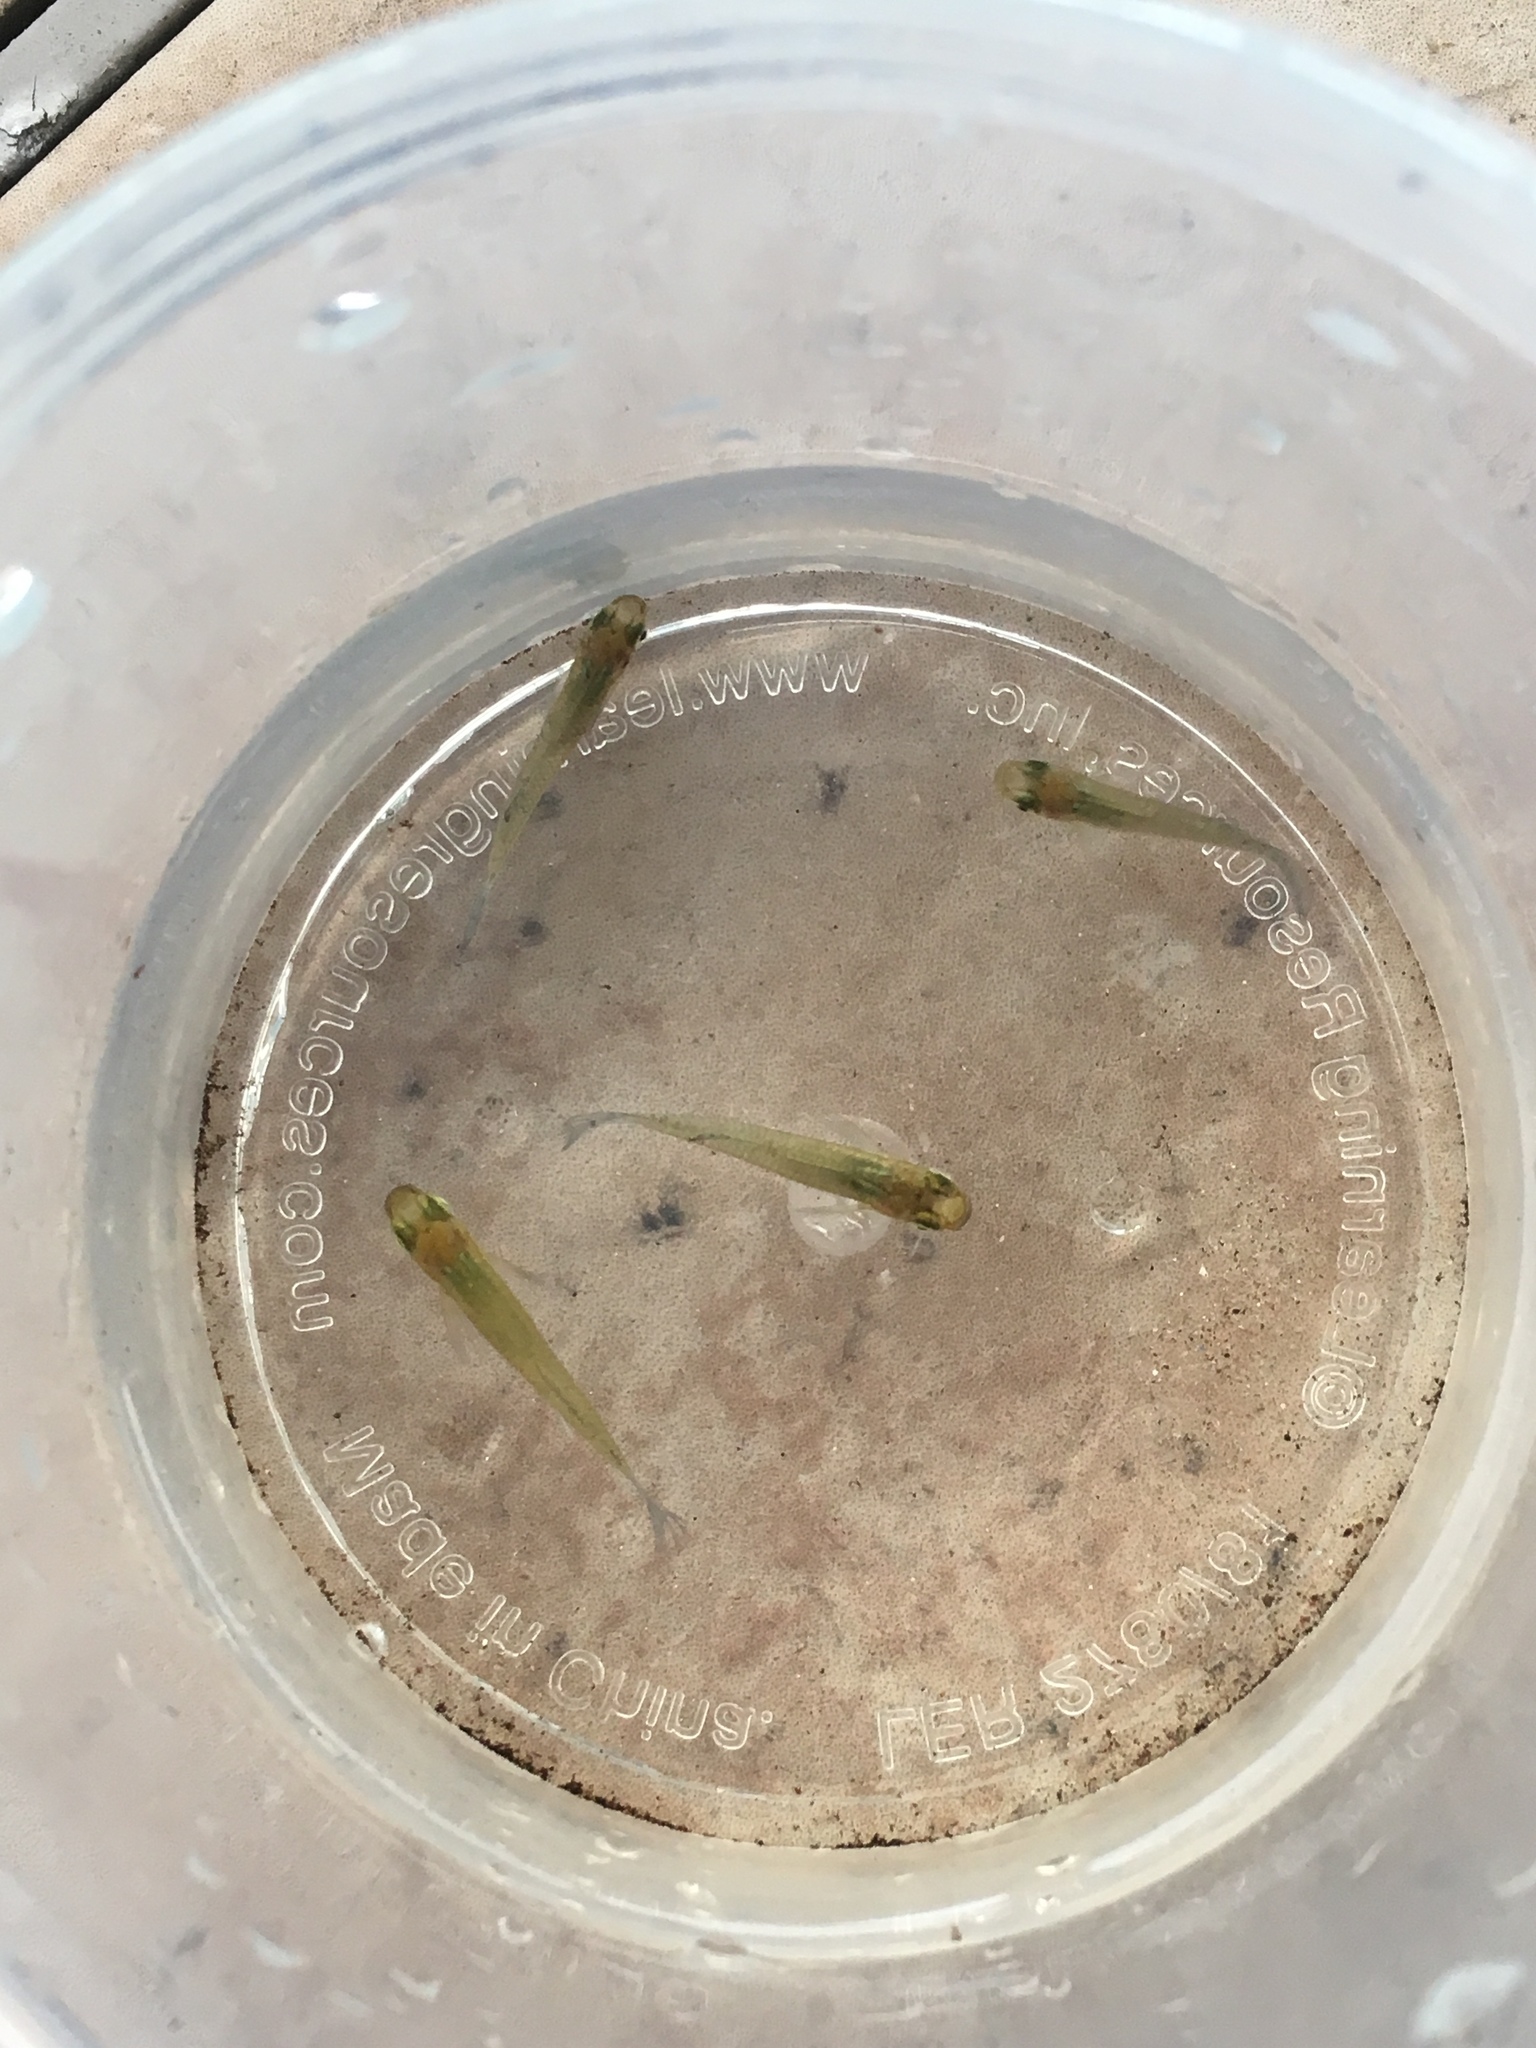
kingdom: Animalia
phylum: Chordata
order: Cyprinodontiformes
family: Poeciliidae
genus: Gambusia
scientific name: Gambusia holbrooki
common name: Eastern mosquitofish
